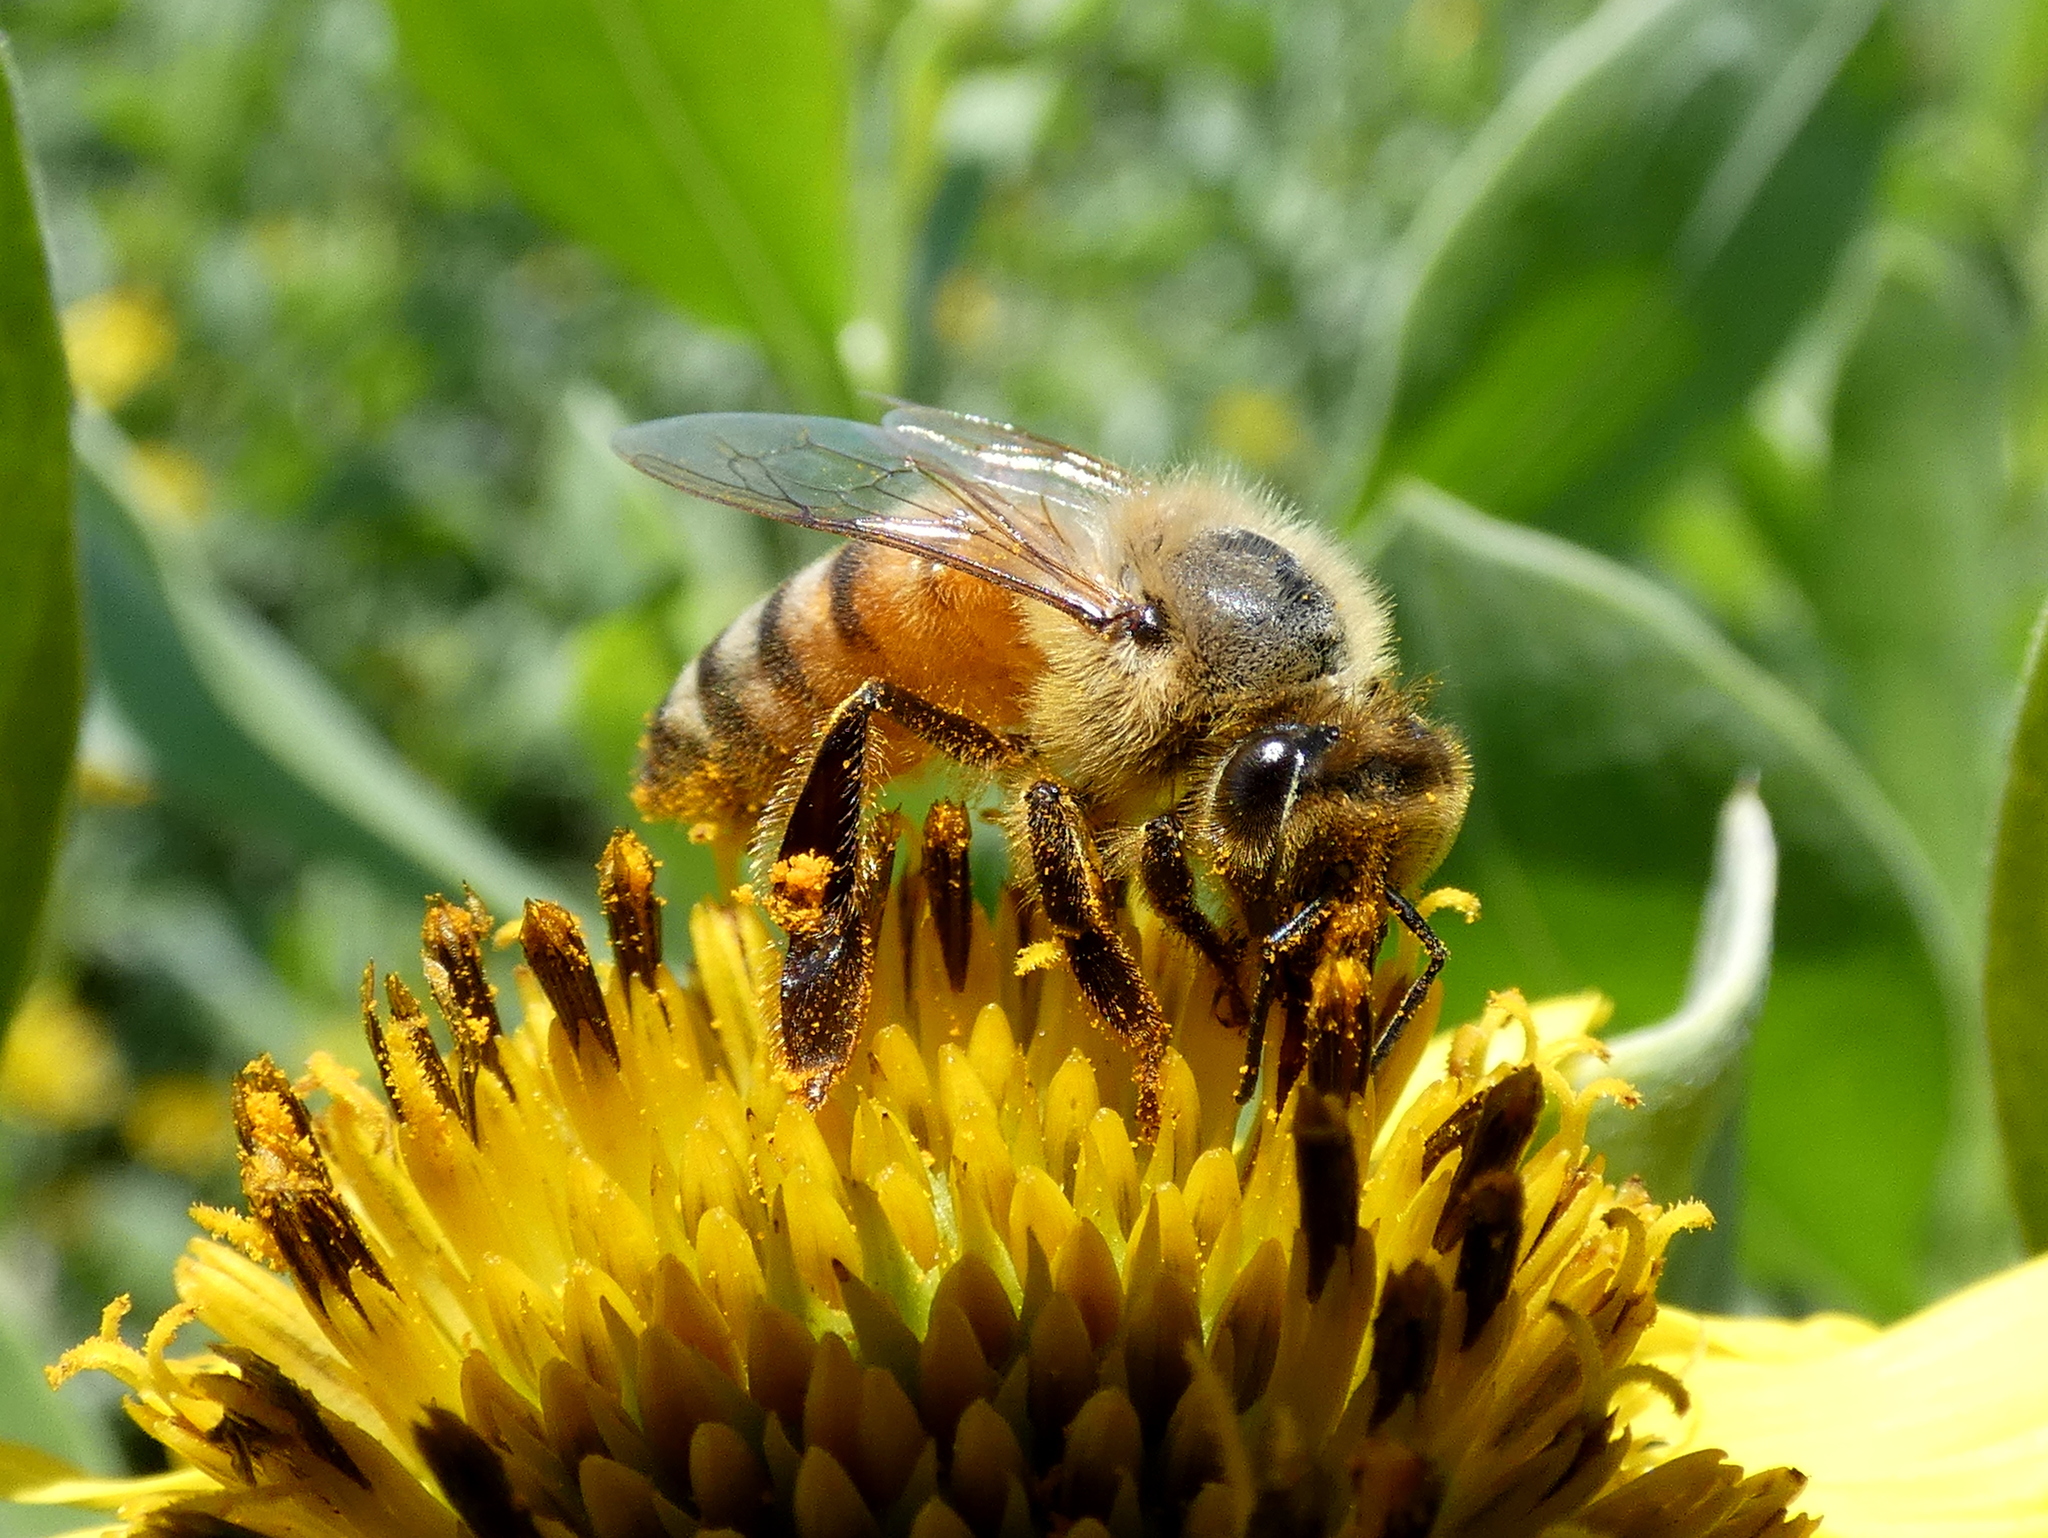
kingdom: Animalia
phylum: Arthropoda
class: Insecta
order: Hymenoptera
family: Apidae
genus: Apis
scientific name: Apis mellifera
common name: Honey bee
